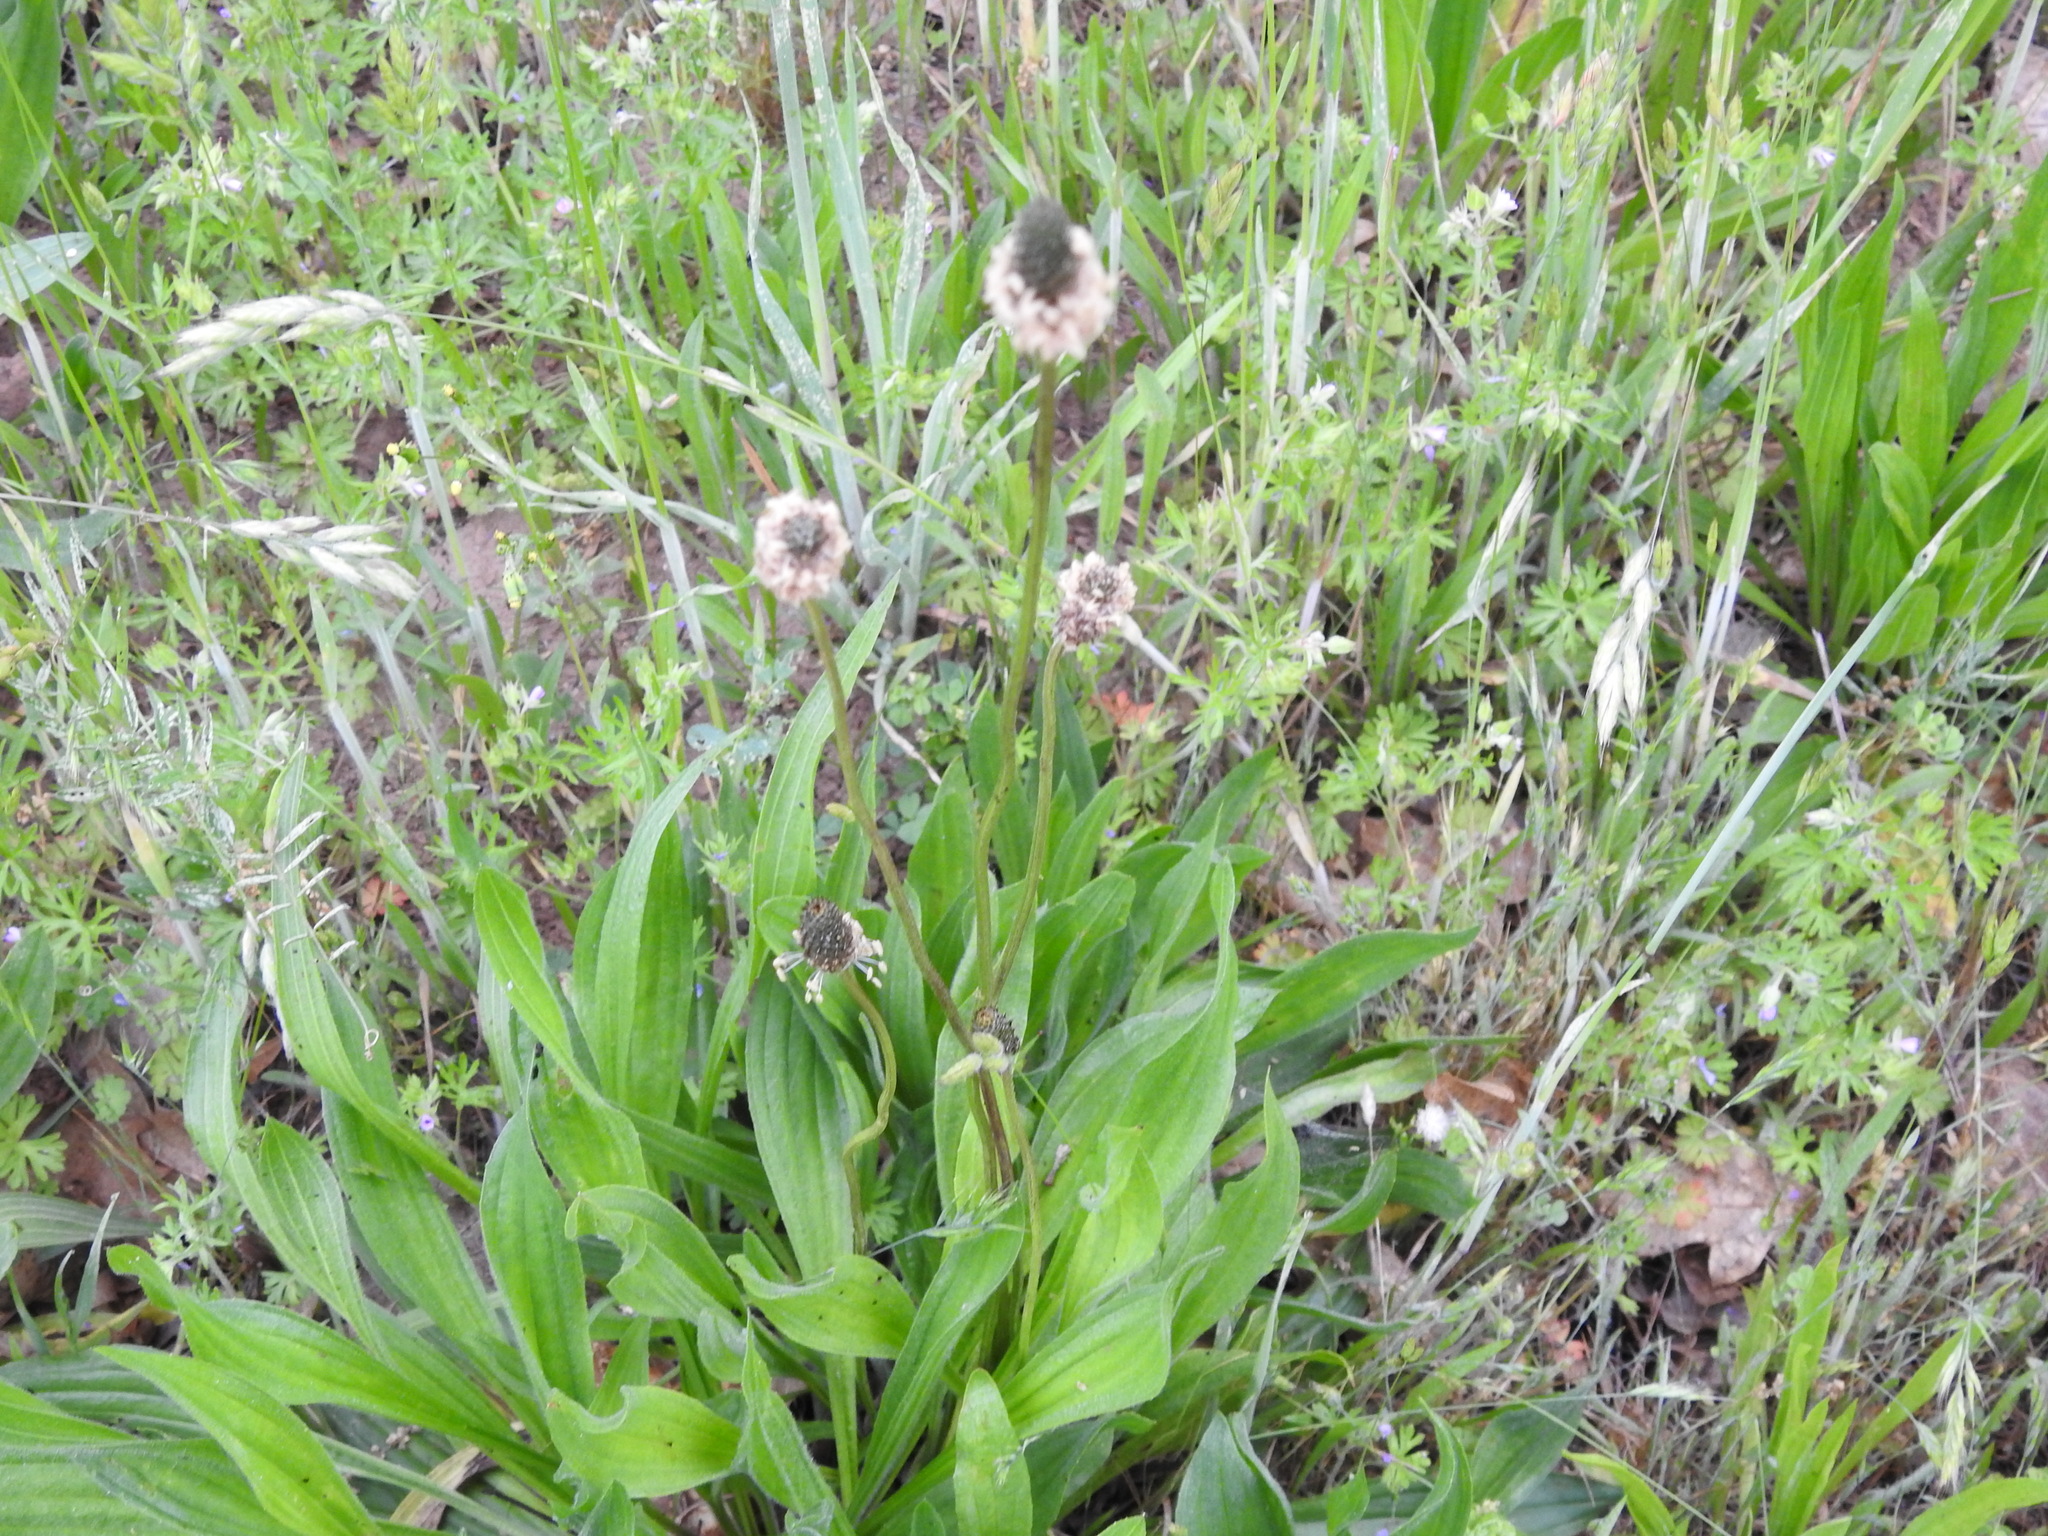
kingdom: Plantae
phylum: Tracheophyta
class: Magnoliopsida
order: Lamiales
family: Plantaginaceae
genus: Plantago
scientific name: Plantago lanceolata
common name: Ribwort plantain
